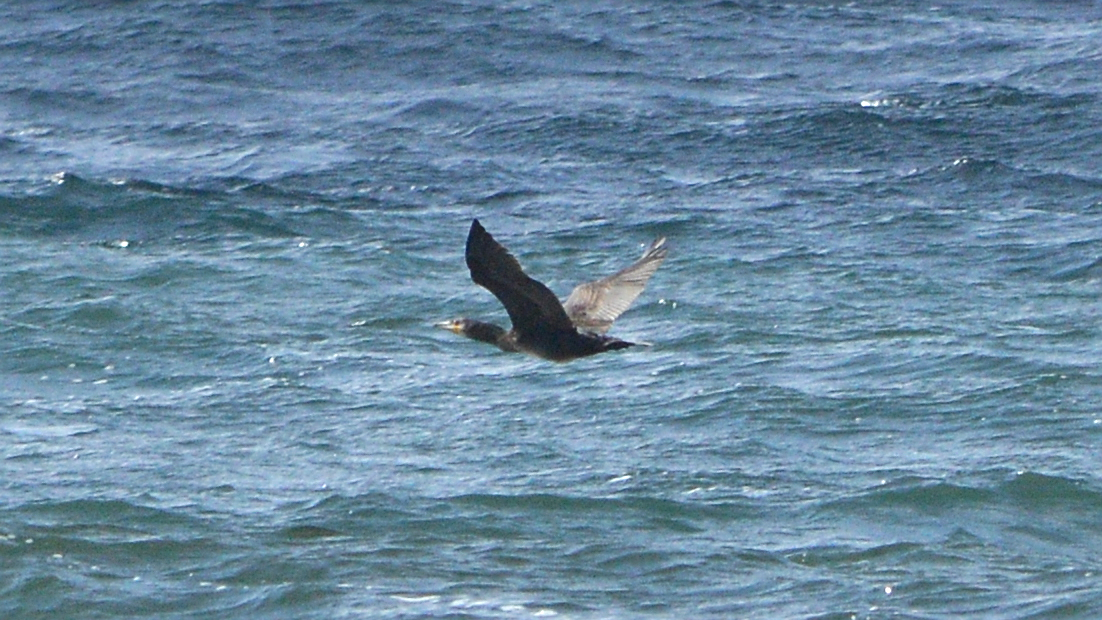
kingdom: Animalia
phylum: Chordata
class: Aves
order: Suliformes
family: Phalacrocoracidae
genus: Phalacrocorax
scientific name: Phalacrocorax carbo
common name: Great cormorant
